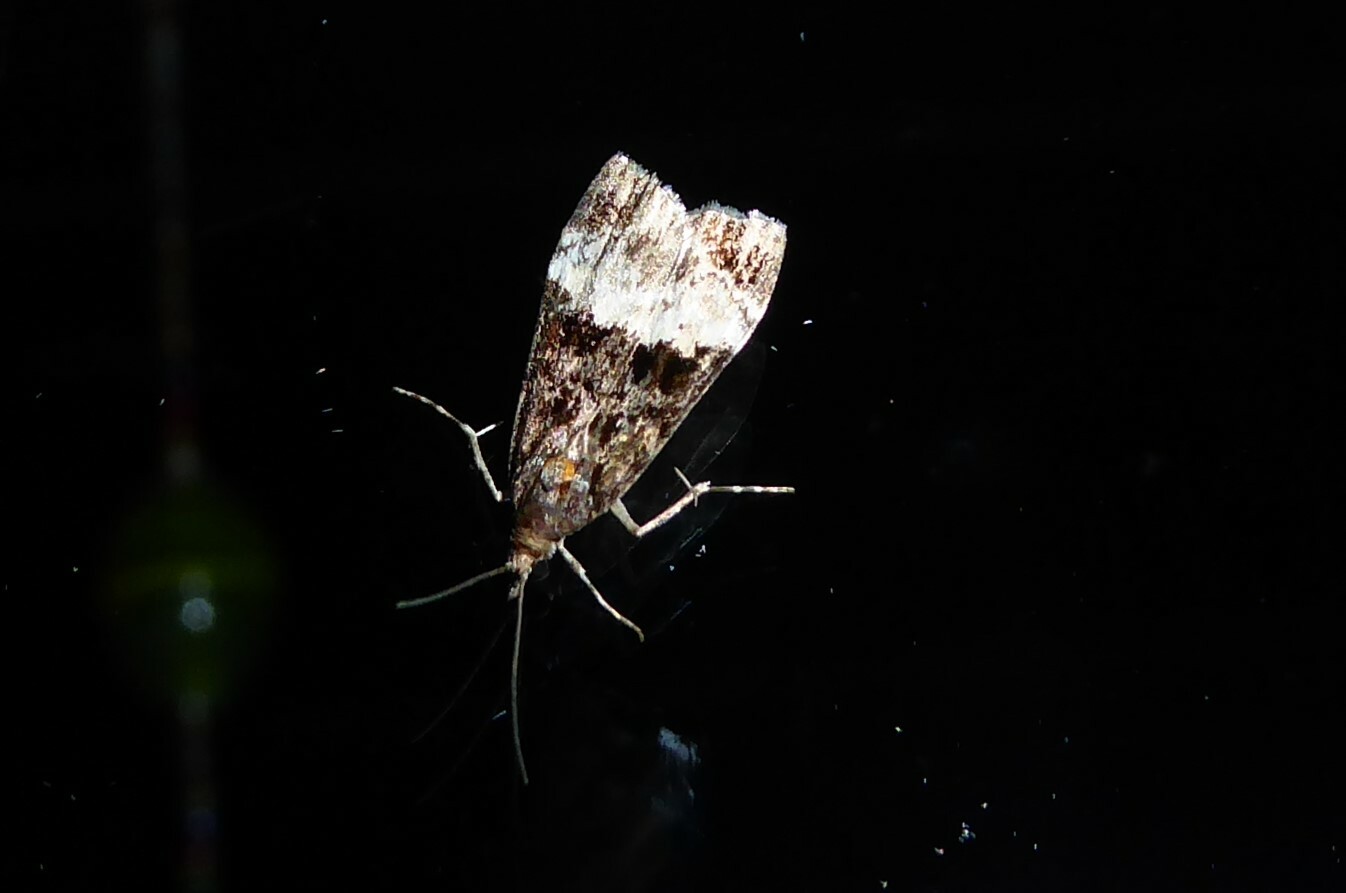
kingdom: Animalia
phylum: Arthropoda
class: Insecta
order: Lepidoptera
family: Crambidae
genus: Scoparia
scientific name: Scoparia minusculalis
